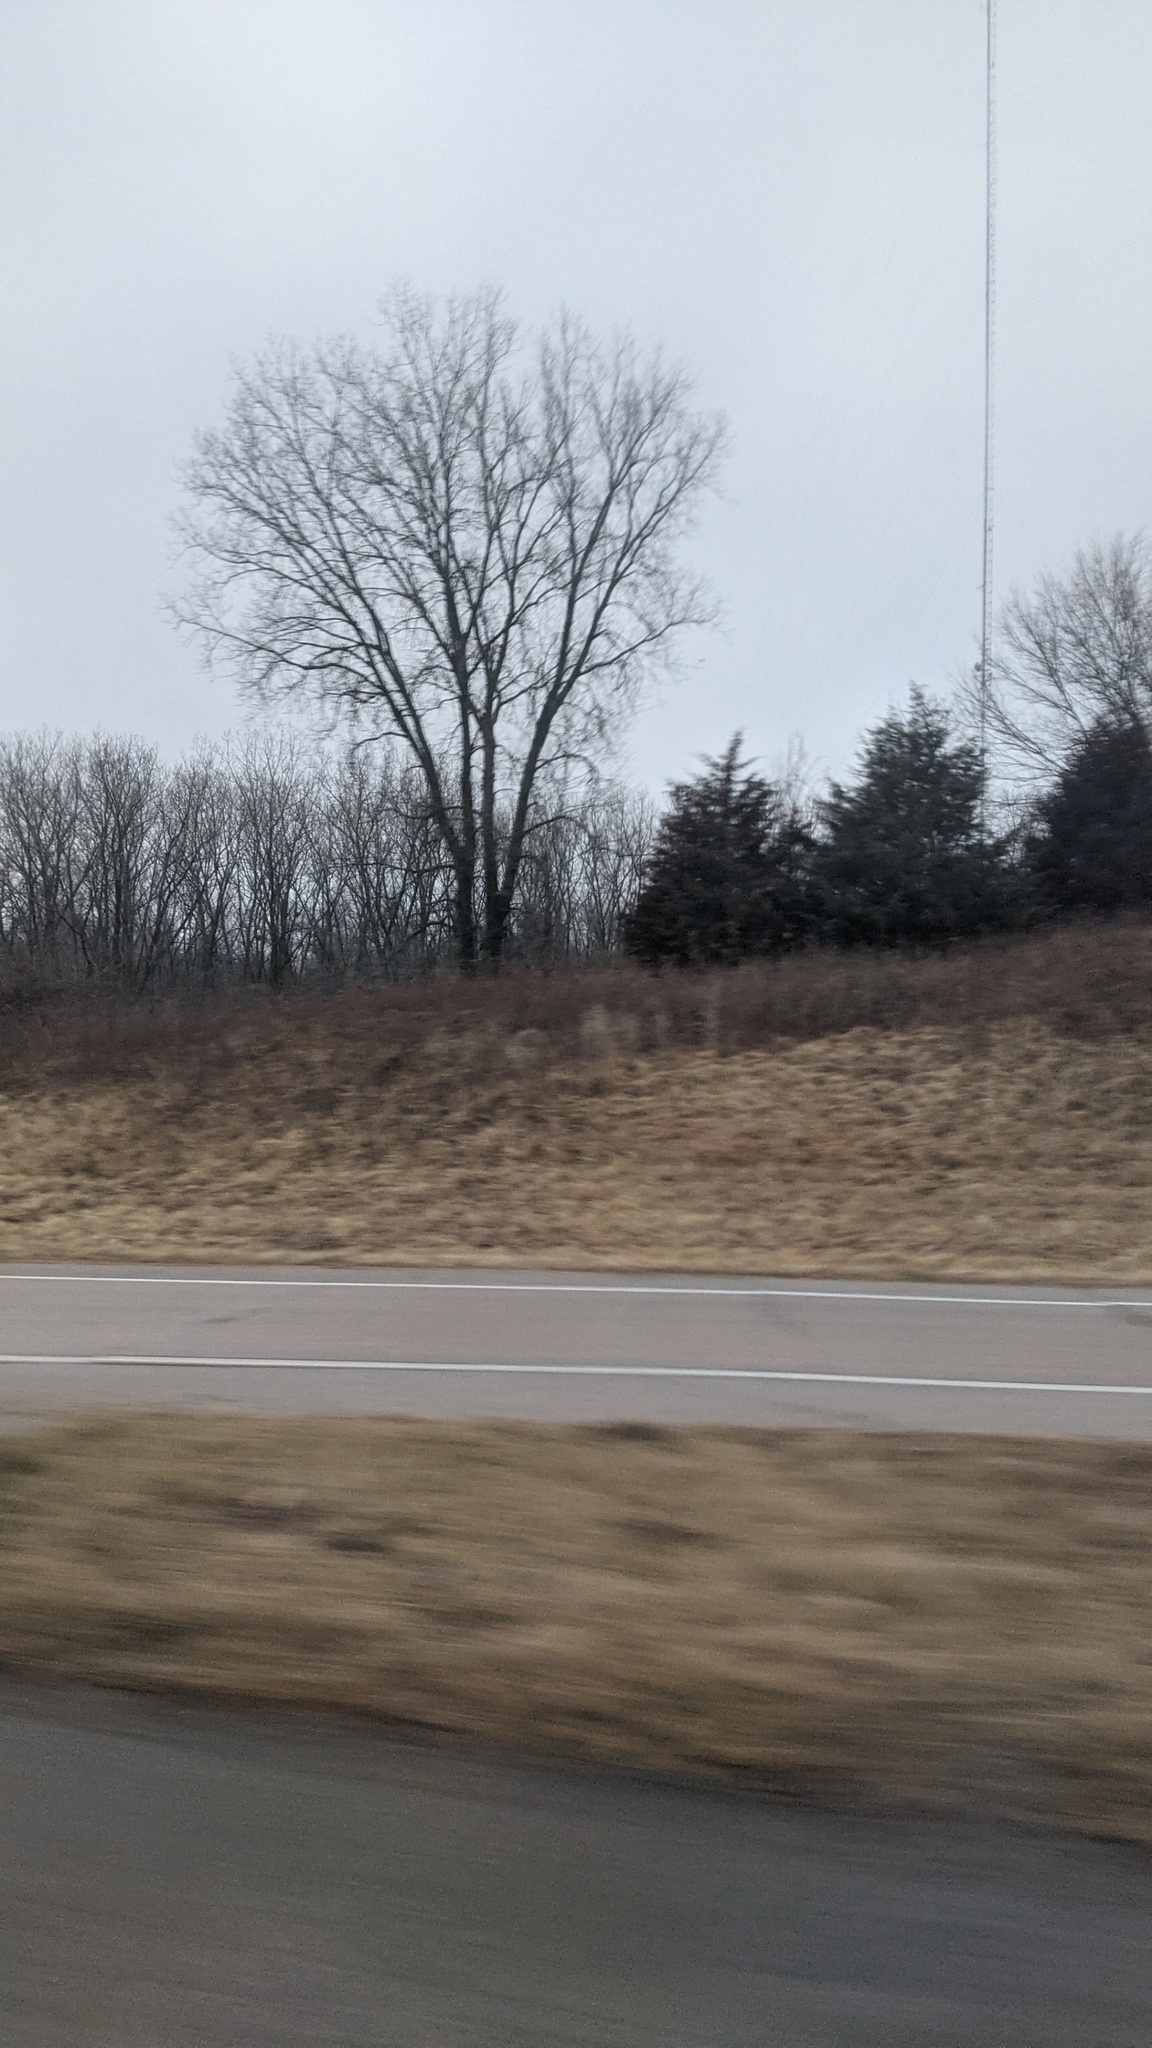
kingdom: Plantae
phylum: Tracheophyta
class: Pinopsida
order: Pinales
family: Cupressaceae
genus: Juniperus
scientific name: Juniperus virginiana
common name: Red juniper
